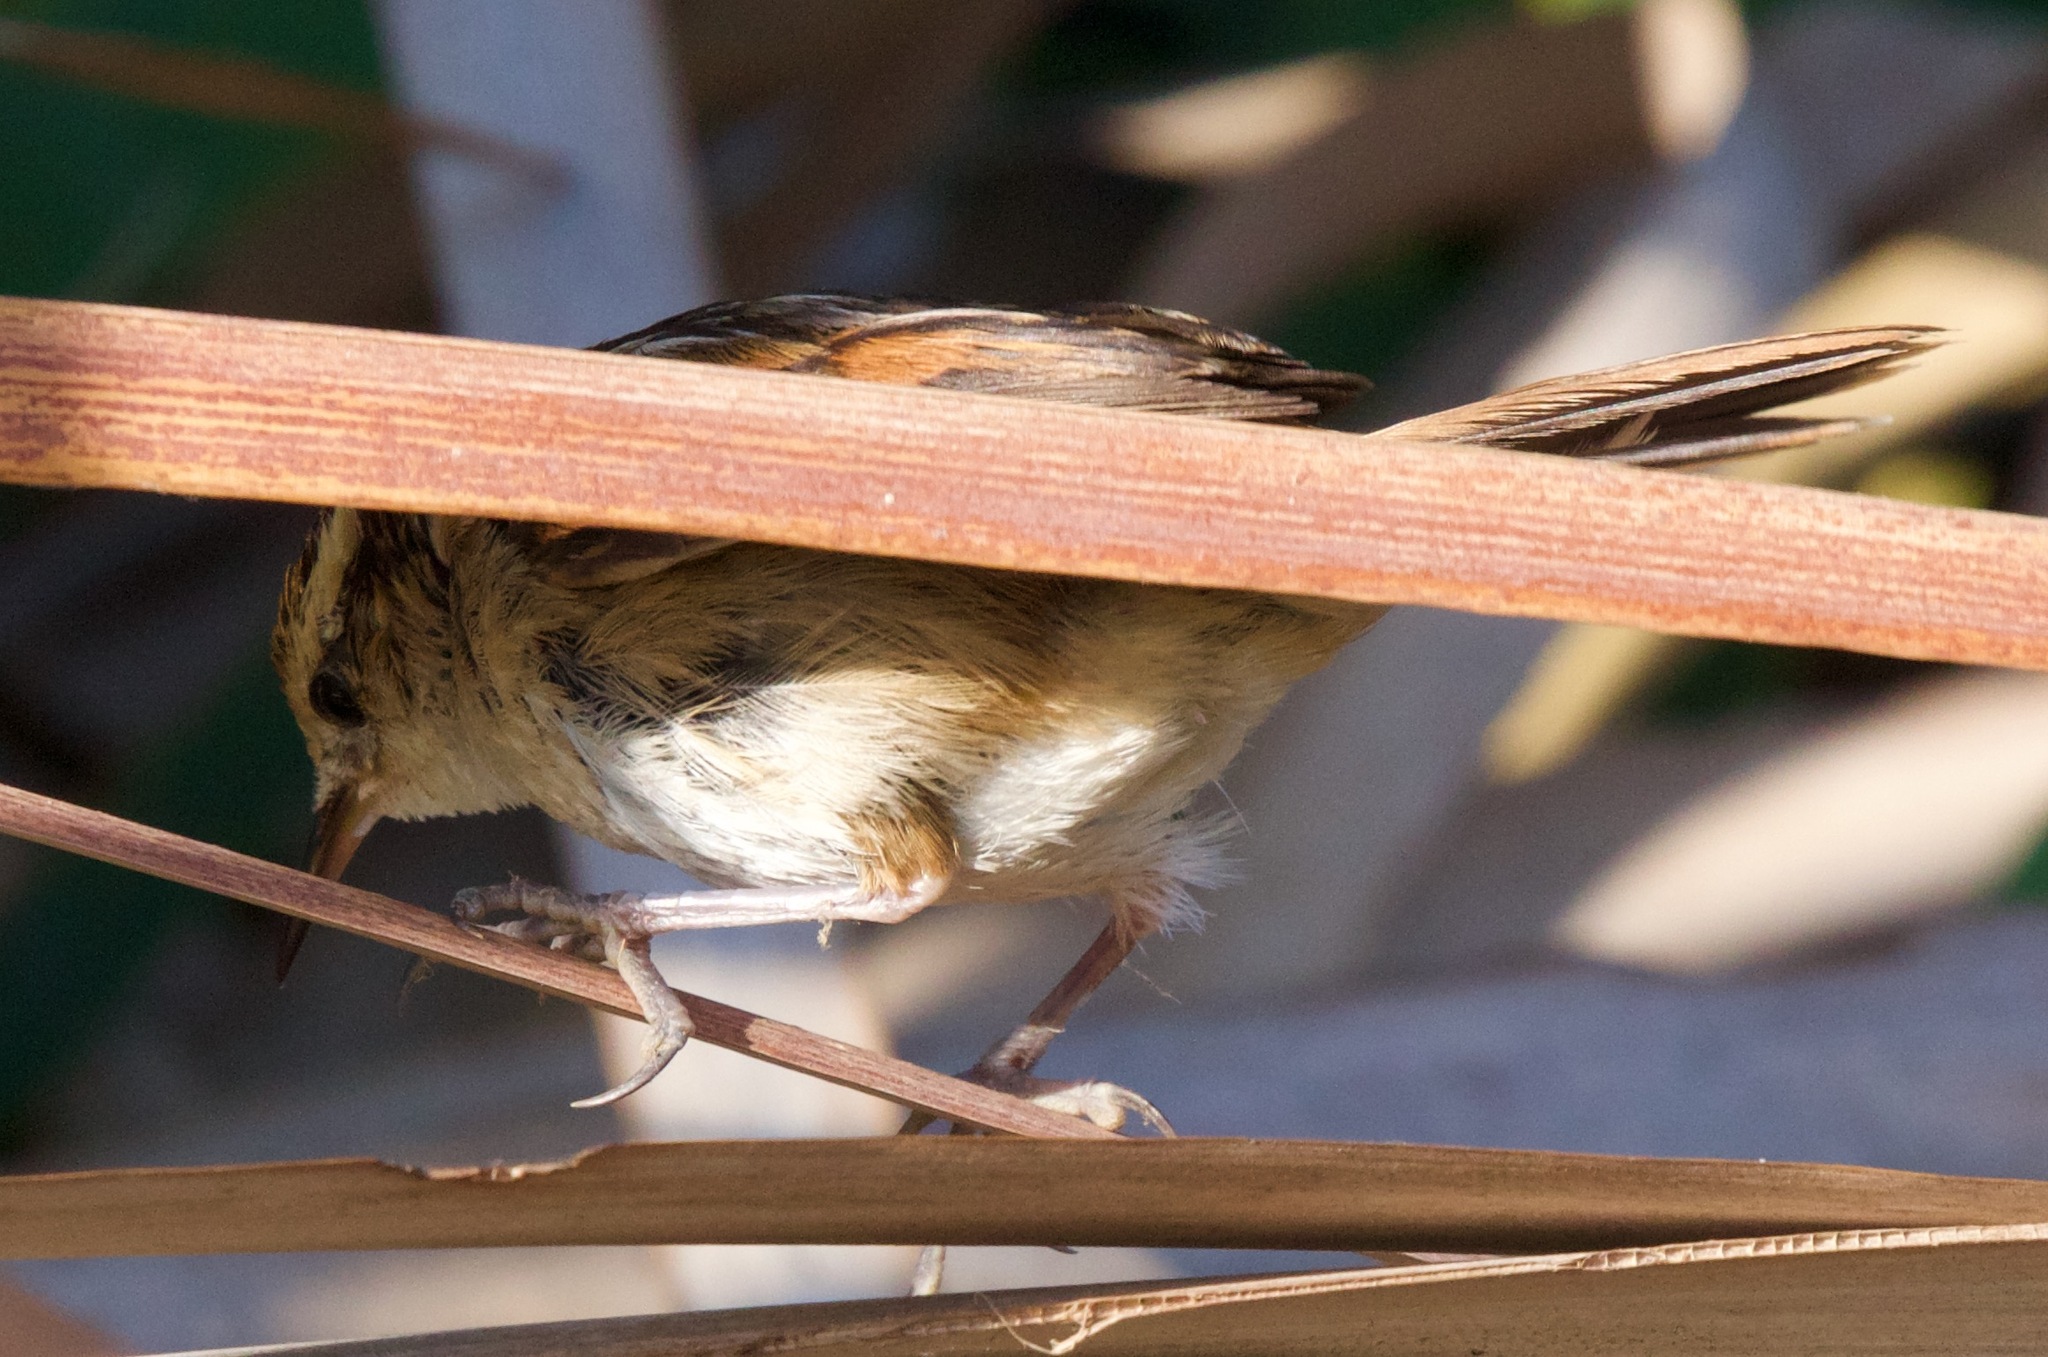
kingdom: Animalia
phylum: Chordata
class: Aves
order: Passeriformes
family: Furnariidae
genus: Phleocryptes
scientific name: Phleocryptes melanops
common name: Wren-like rushbird
